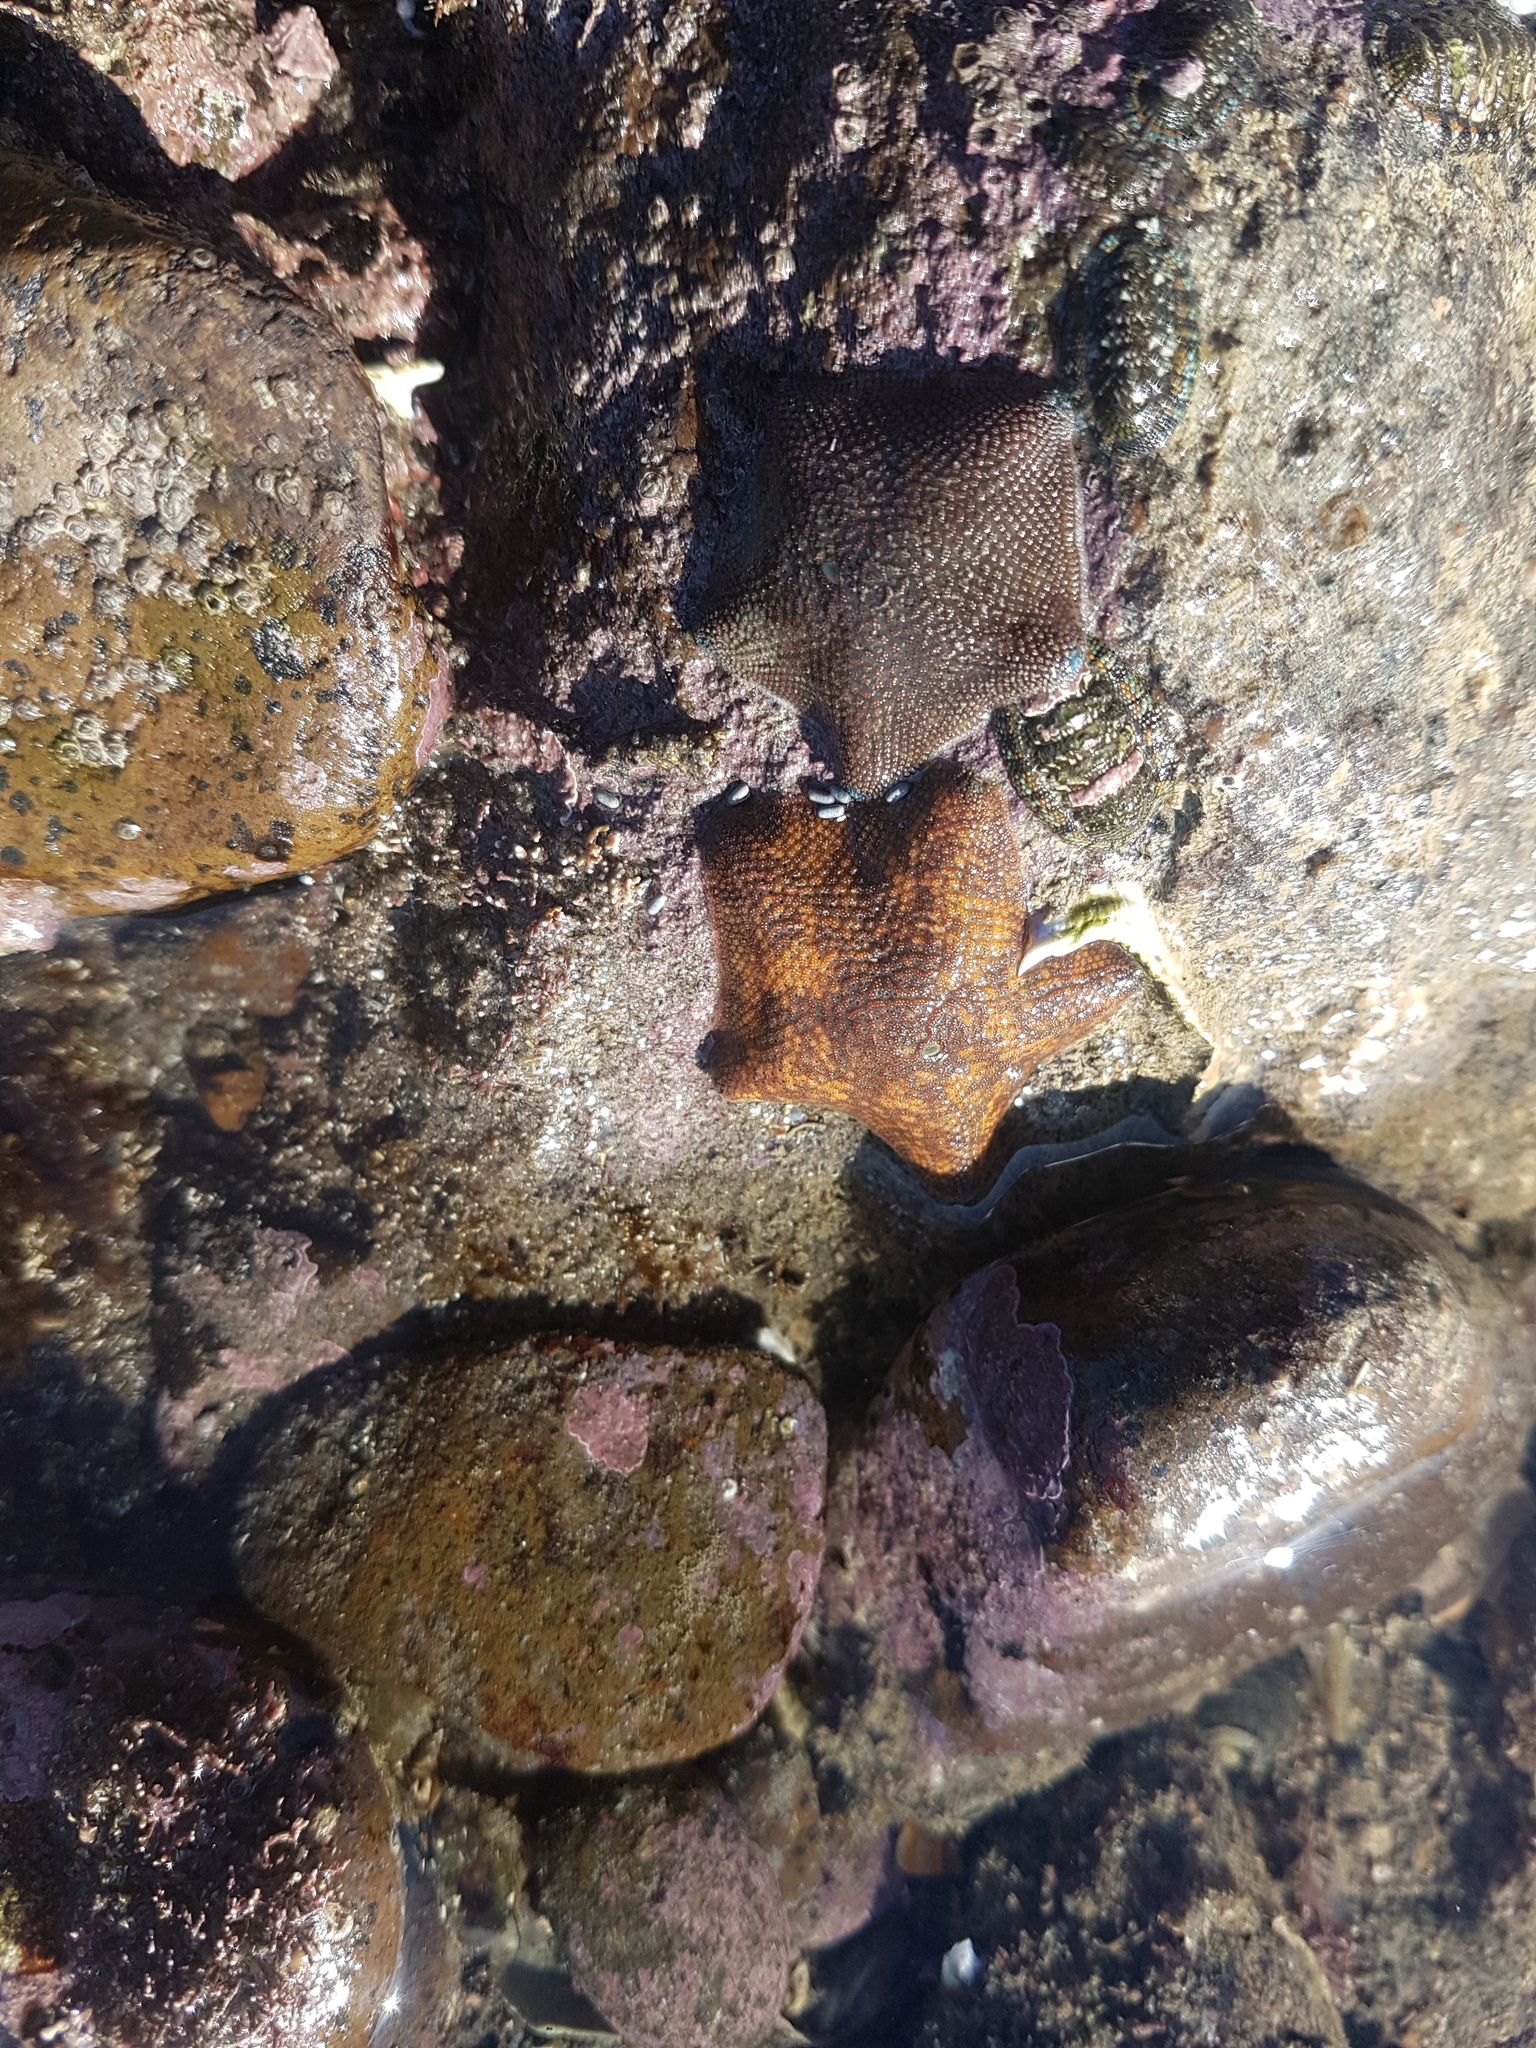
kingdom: Animalia
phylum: Echinodermata
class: Asteroidea
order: Valvatida
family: Asterinidae
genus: Patiriella
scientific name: Patiriella regularis
